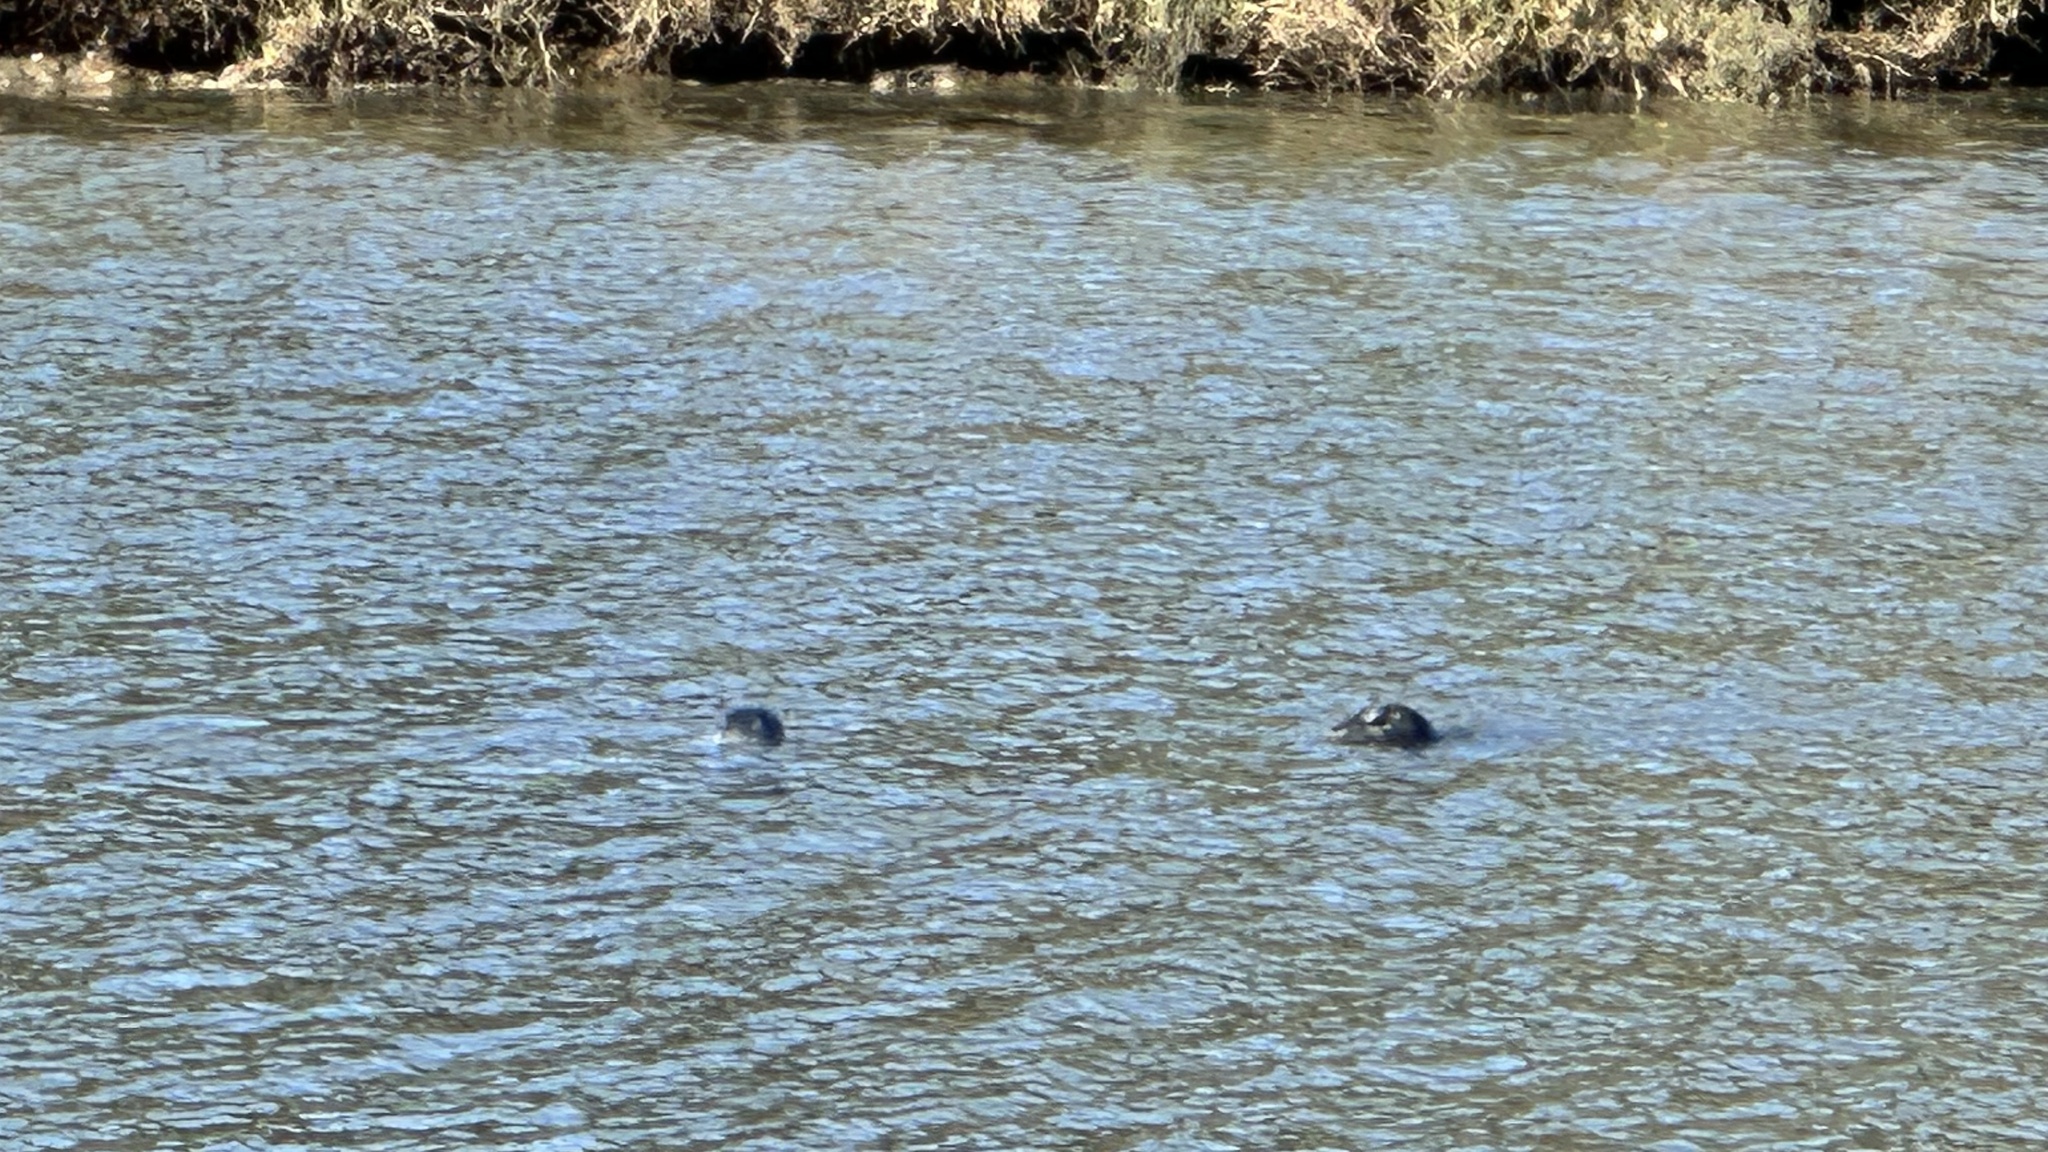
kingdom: Animalia
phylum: Chordata
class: Mammalia
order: Carnivora
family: Phocidae
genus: Phoca
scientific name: Phoca vitulina
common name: Harbor seal
